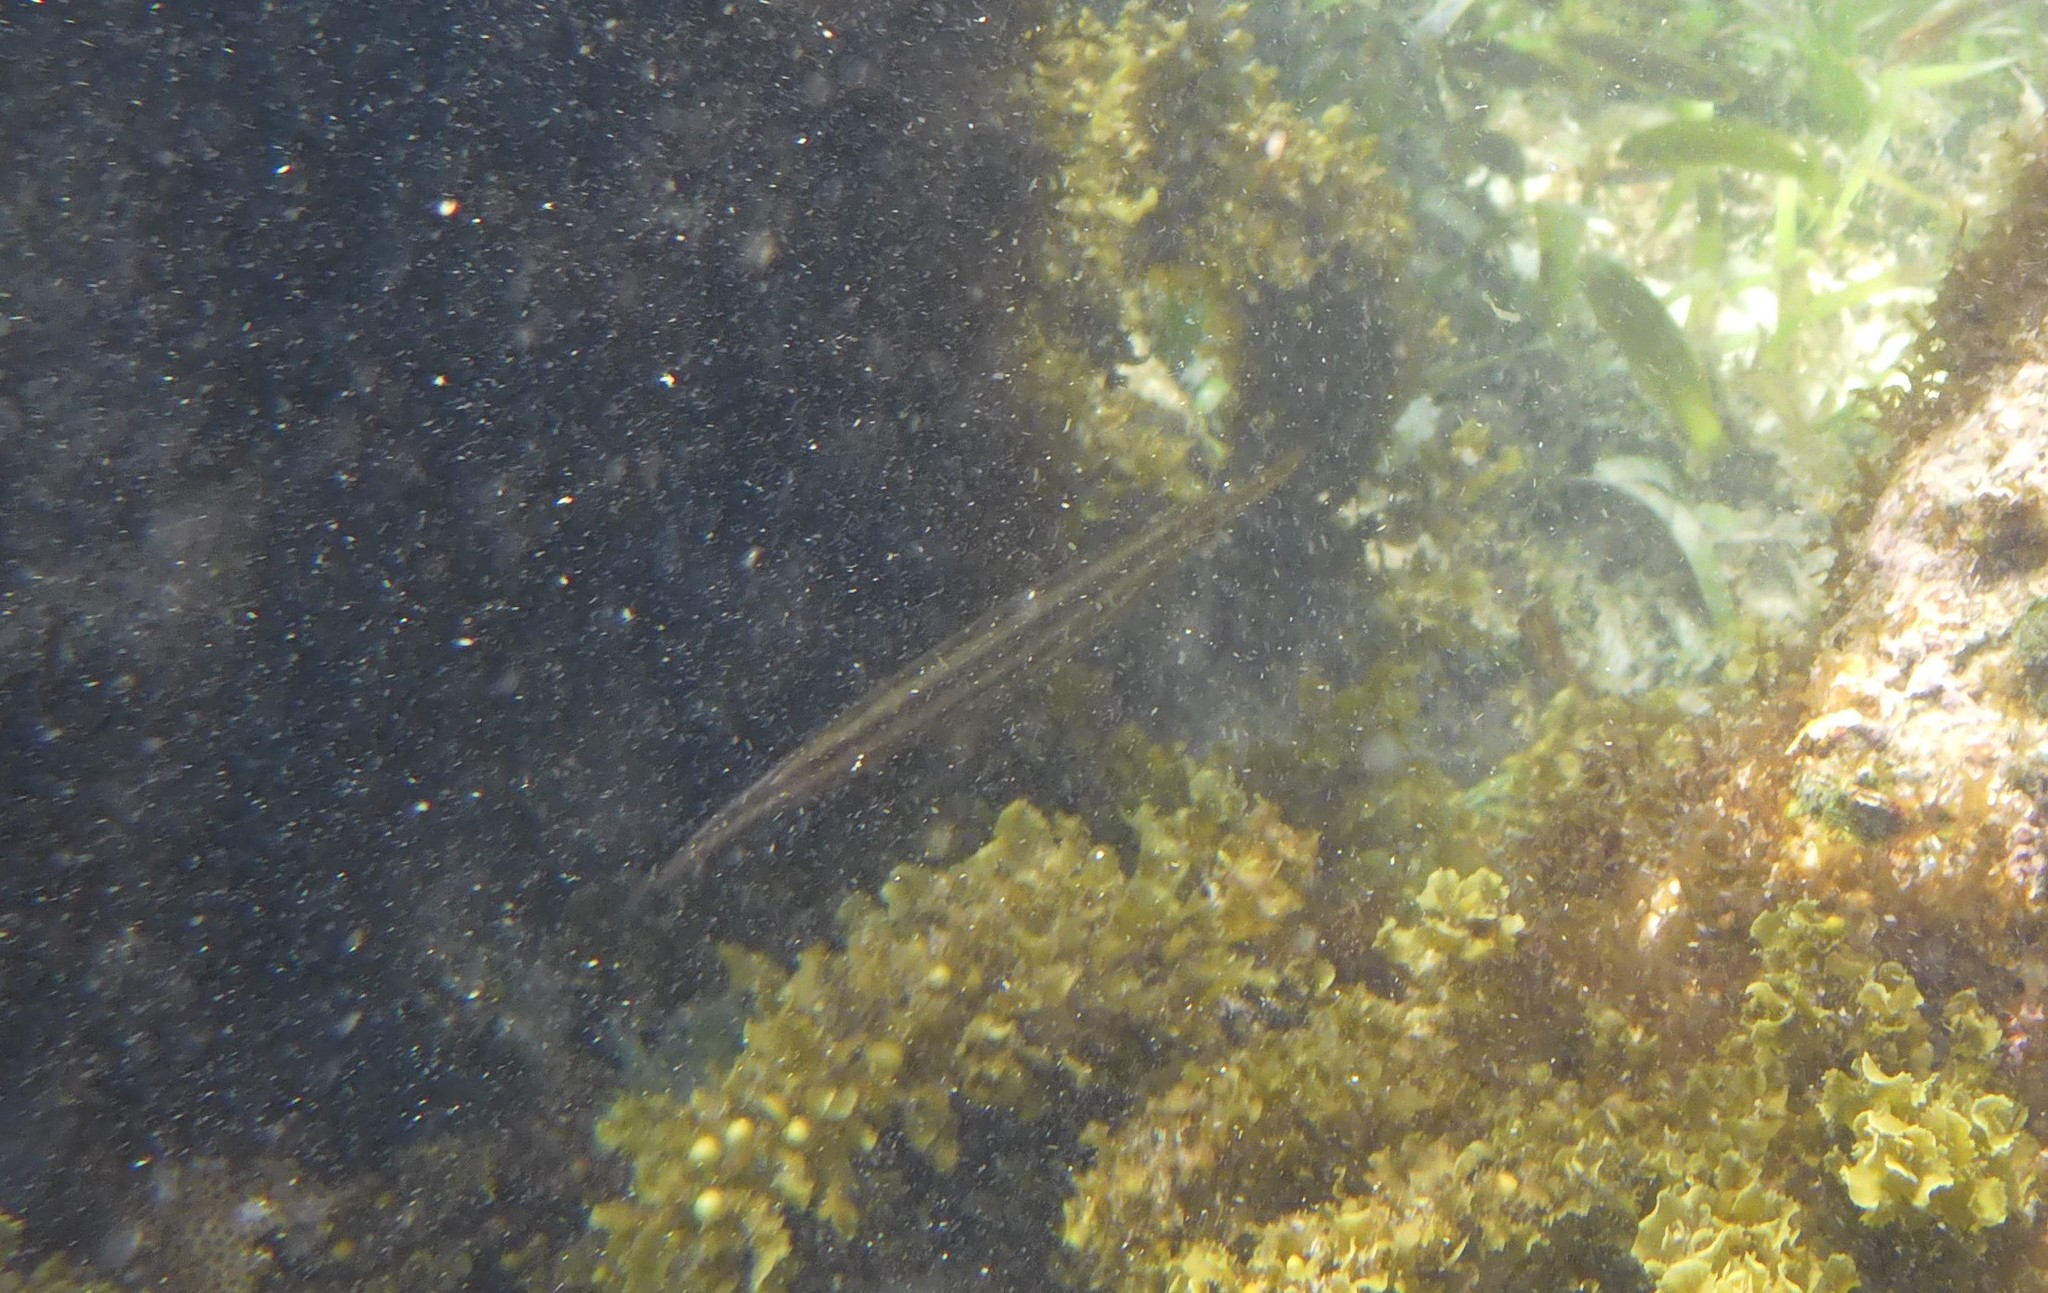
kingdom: Animalia
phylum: Chordata
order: Syngnathiformes
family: Aulostomidae
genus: Aulostomus
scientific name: Aulostomus maculatus
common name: West atlantic trumpetfish
